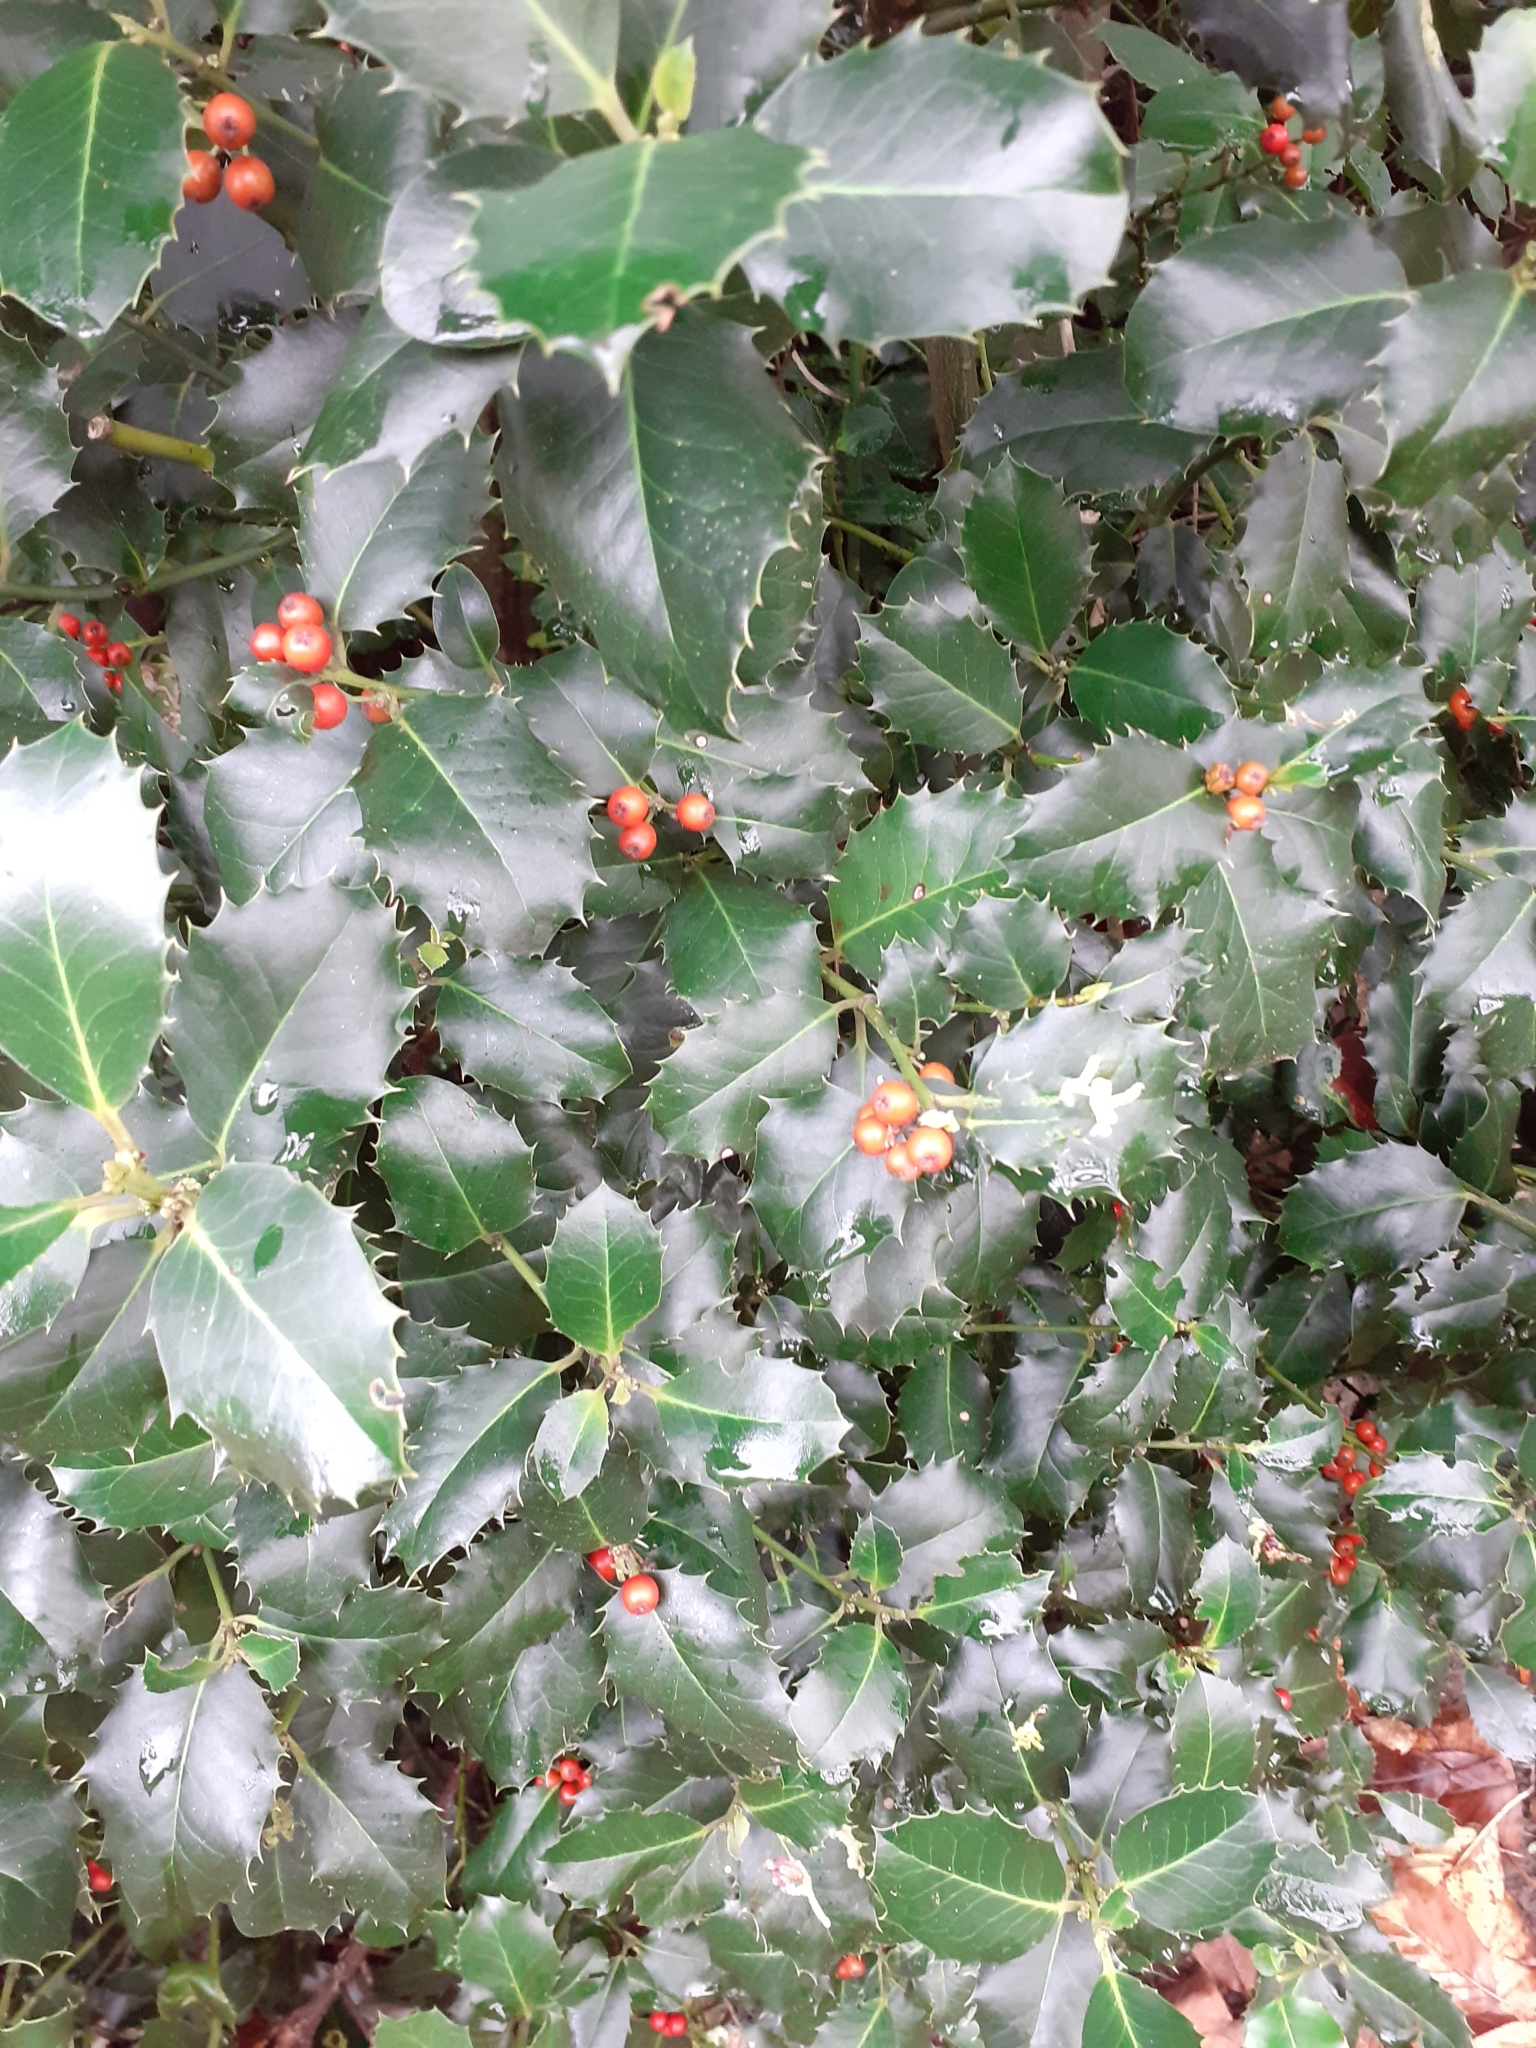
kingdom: Plantae
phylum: Tracheophyta
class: Magnoliopsida
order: Aquifoliales
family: Aquifoliaceae
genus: Ilex
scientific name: Ilex aquifolium
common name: English holly
